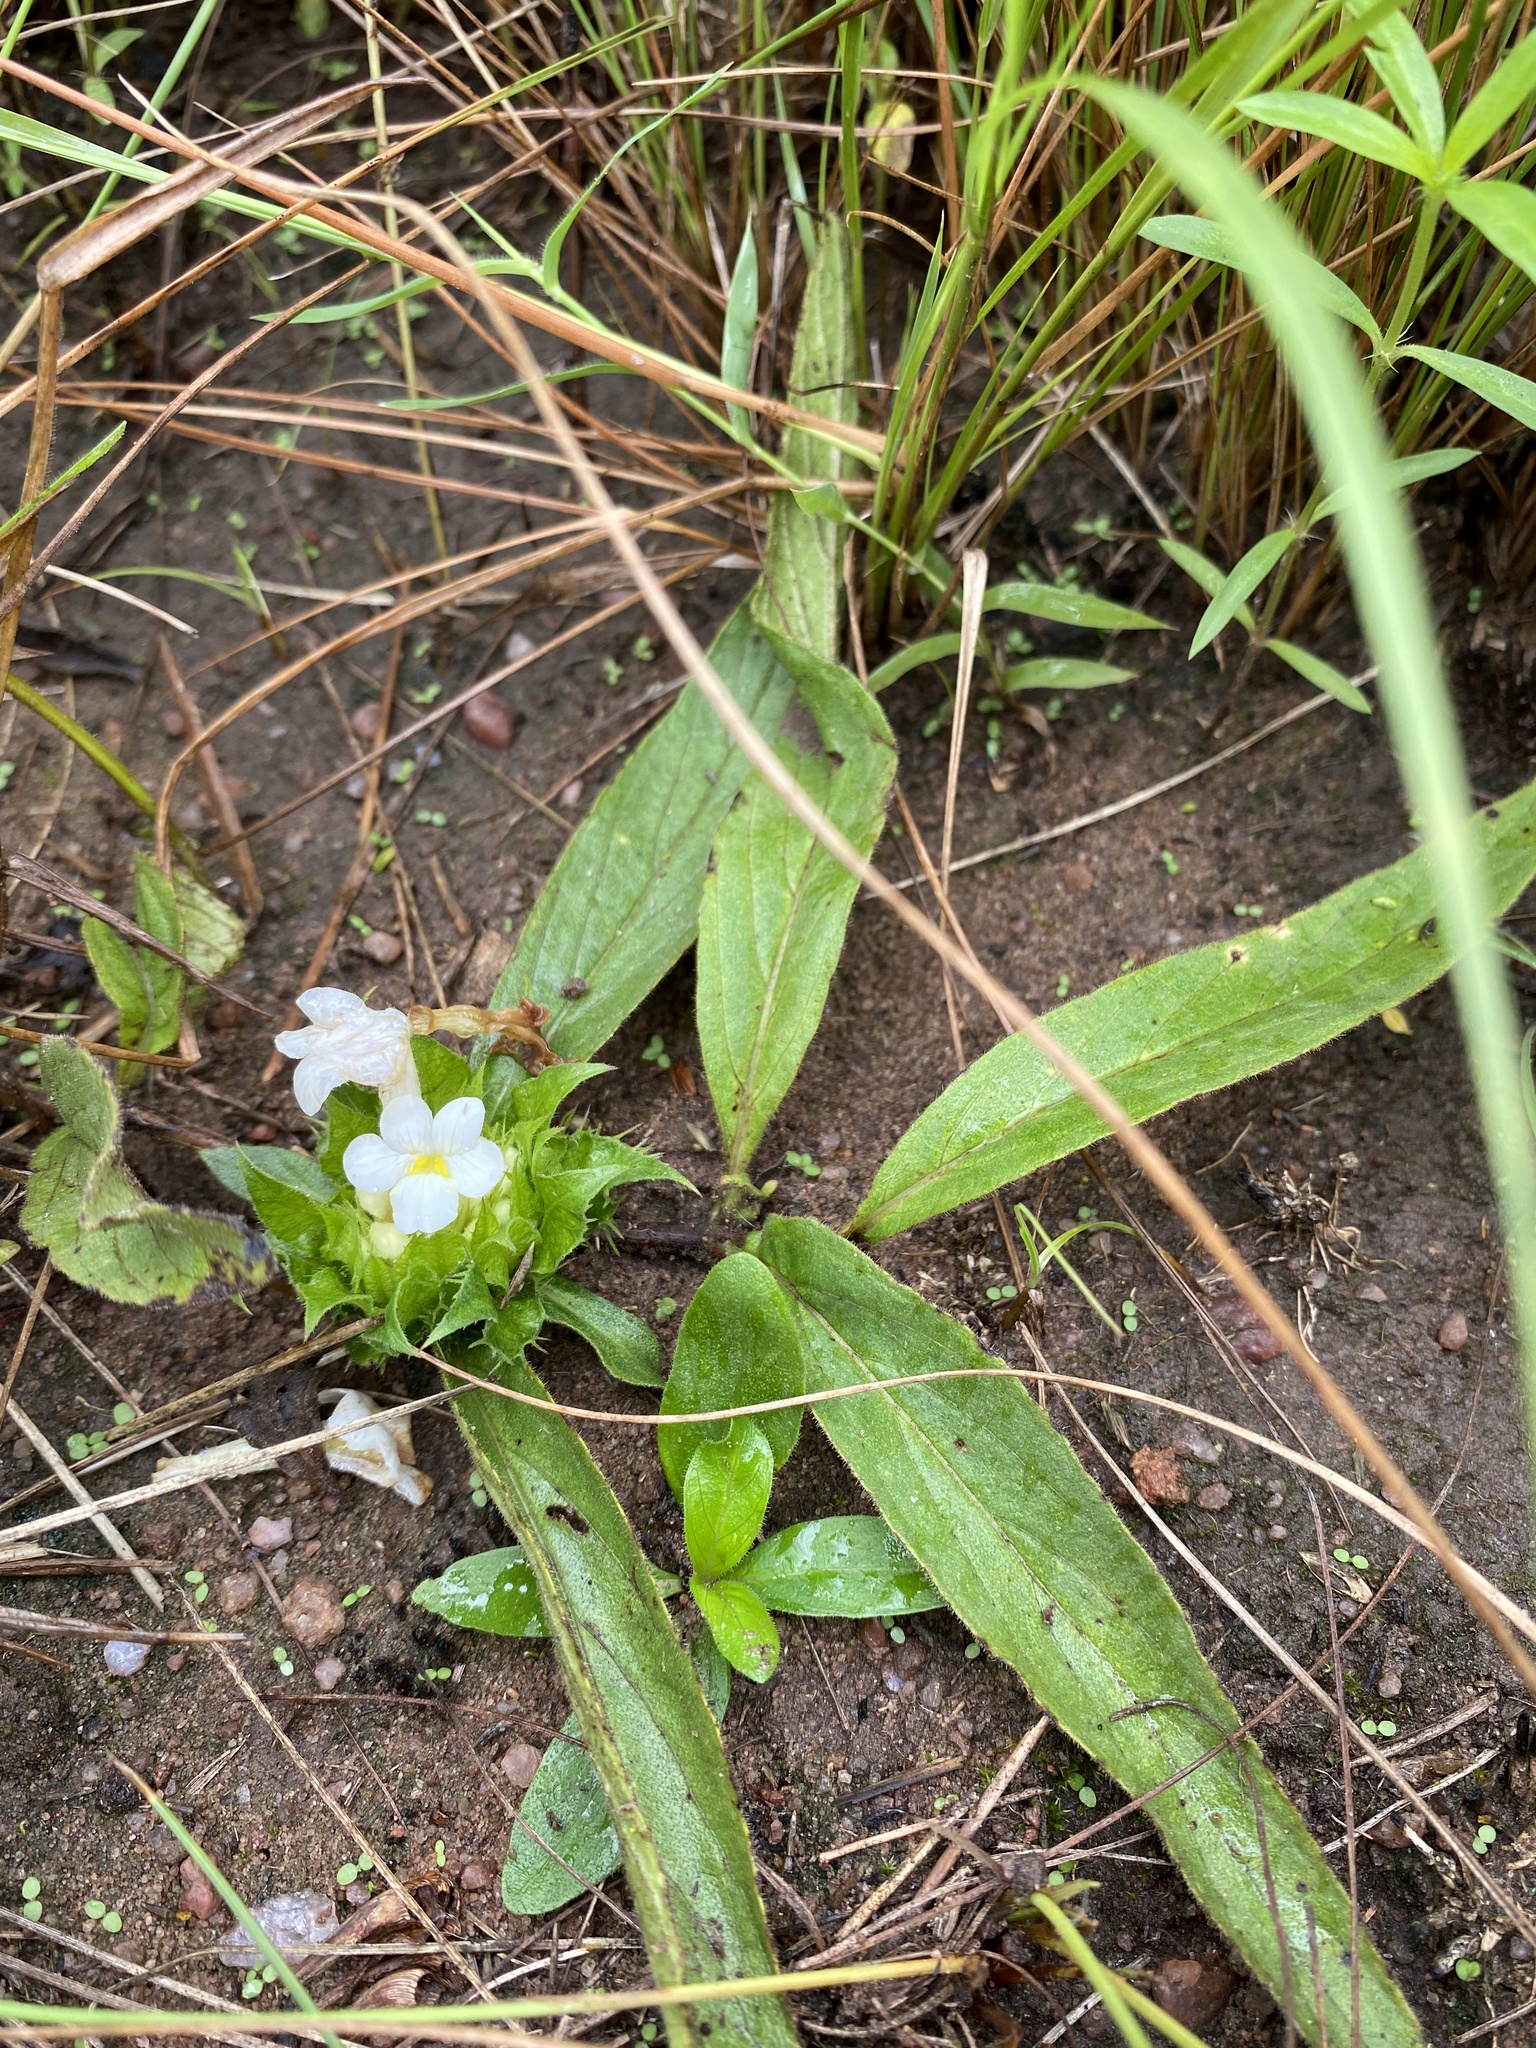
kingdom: Plantae
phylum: Tracheophyta
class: Magnoliopsida
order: Lamiales
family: Acanthaceae
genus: Crabbea
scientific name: Crabbea cirsioides
